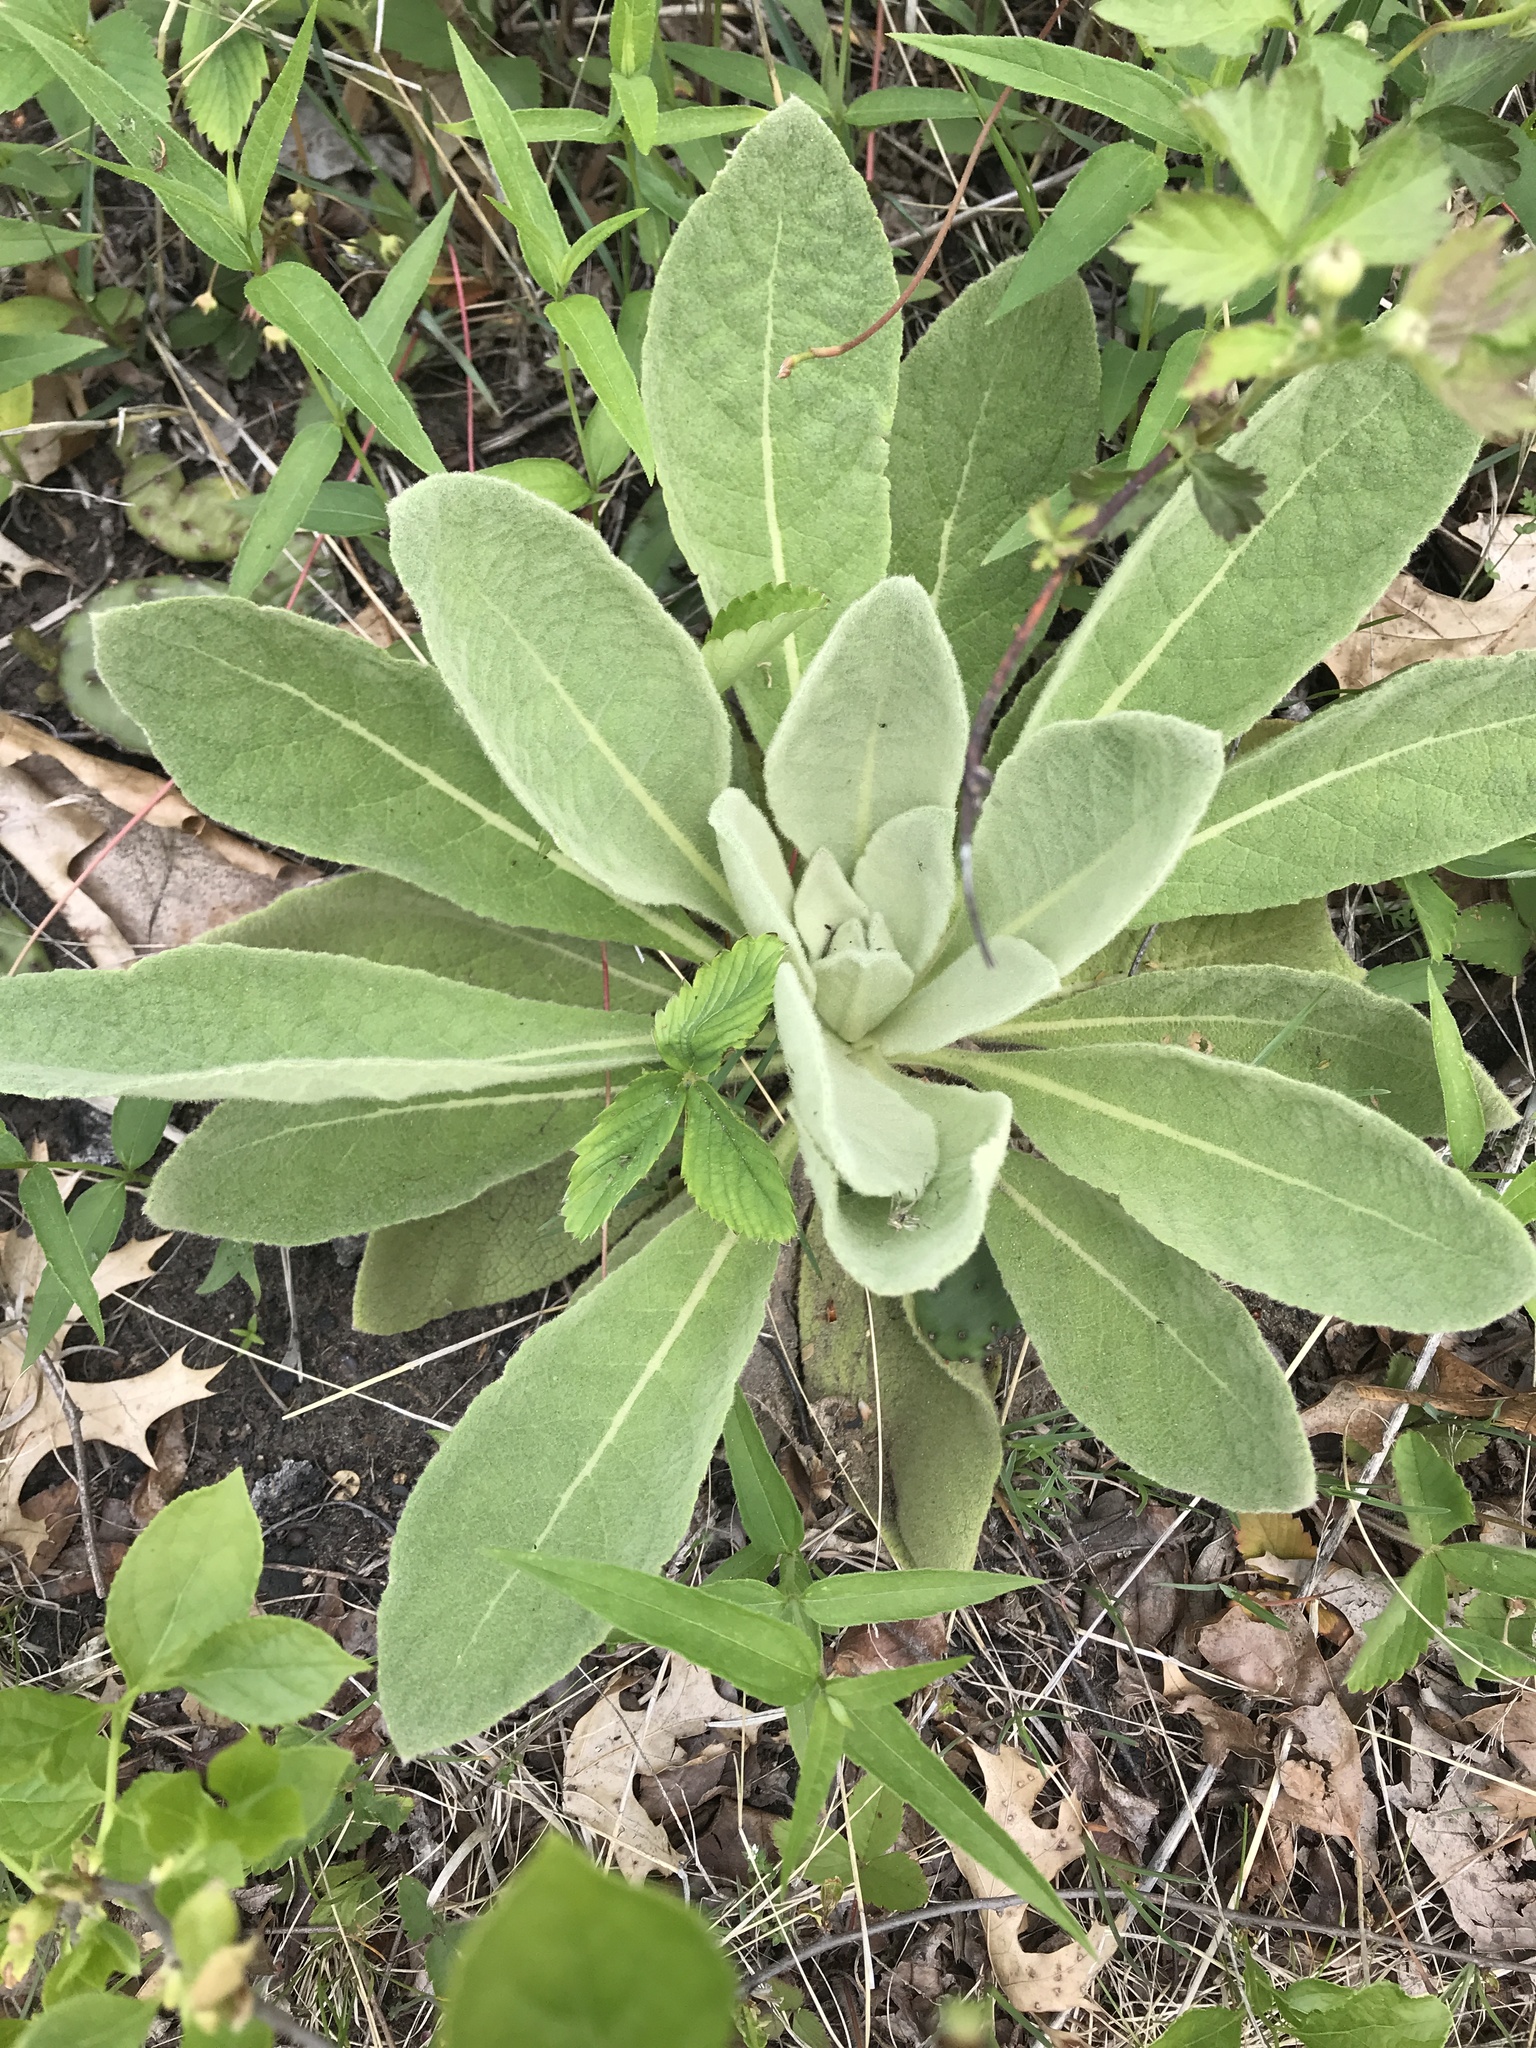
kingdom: Plantae
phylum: Tracheophyta
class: Magnoliopsida
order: Lamiales
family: Scrophulariaceae
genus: Verbascum
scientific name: Verbascum thapsus
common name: Common mullein
